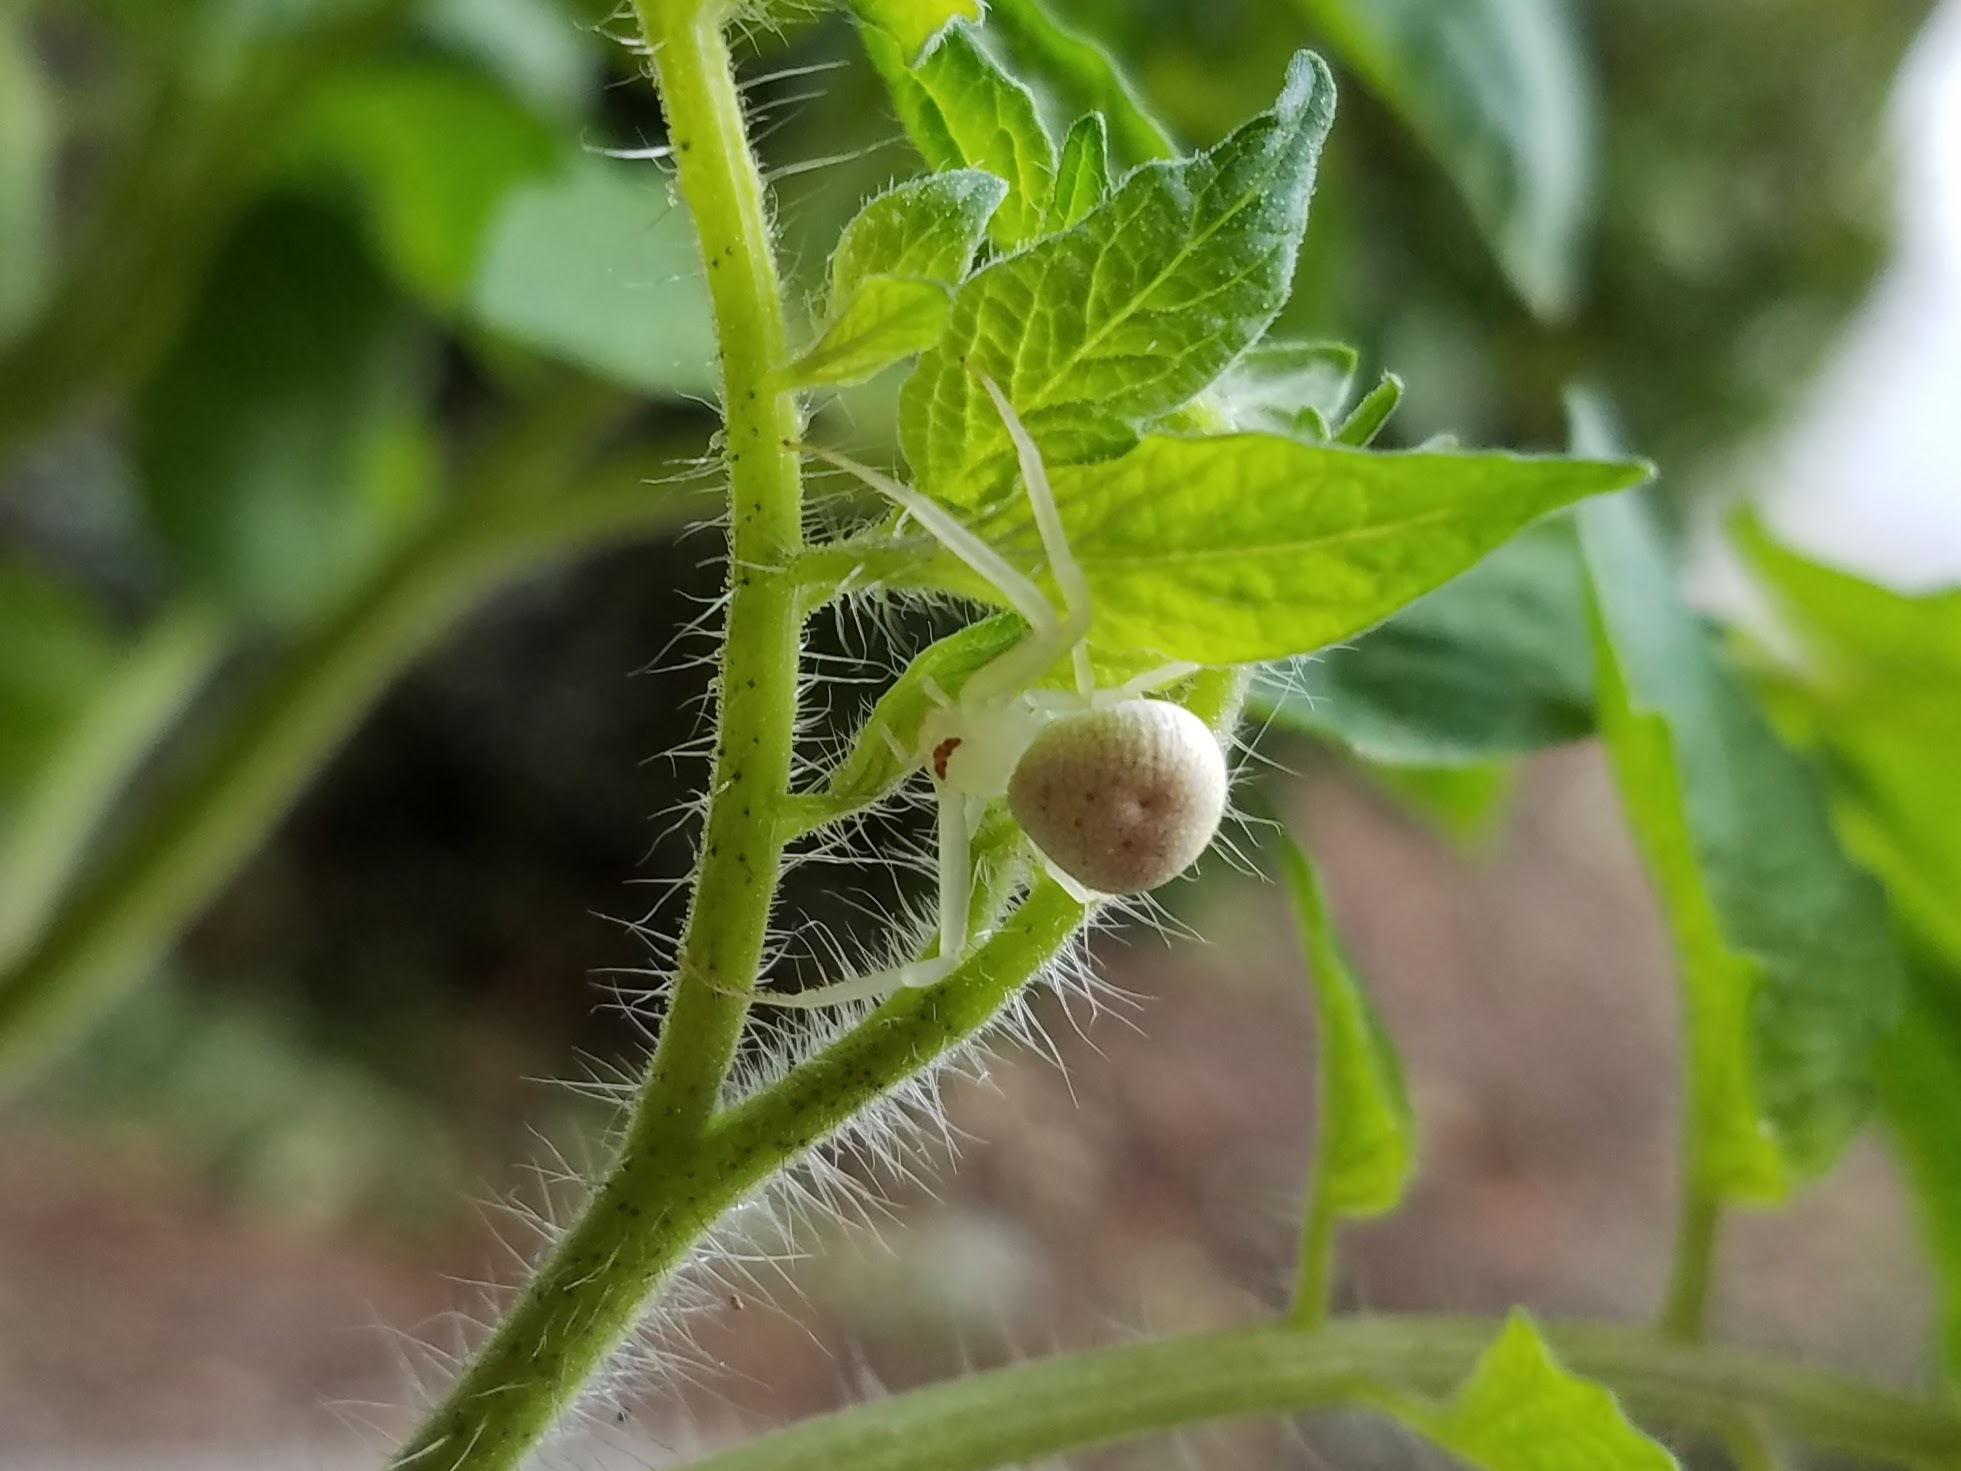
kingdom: Animalia
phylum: Arthropoda
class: Arachnida
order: Araneae
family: Thomisidae
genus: Misumessus
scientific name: Misumessus oblongus
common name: American green crab spider
